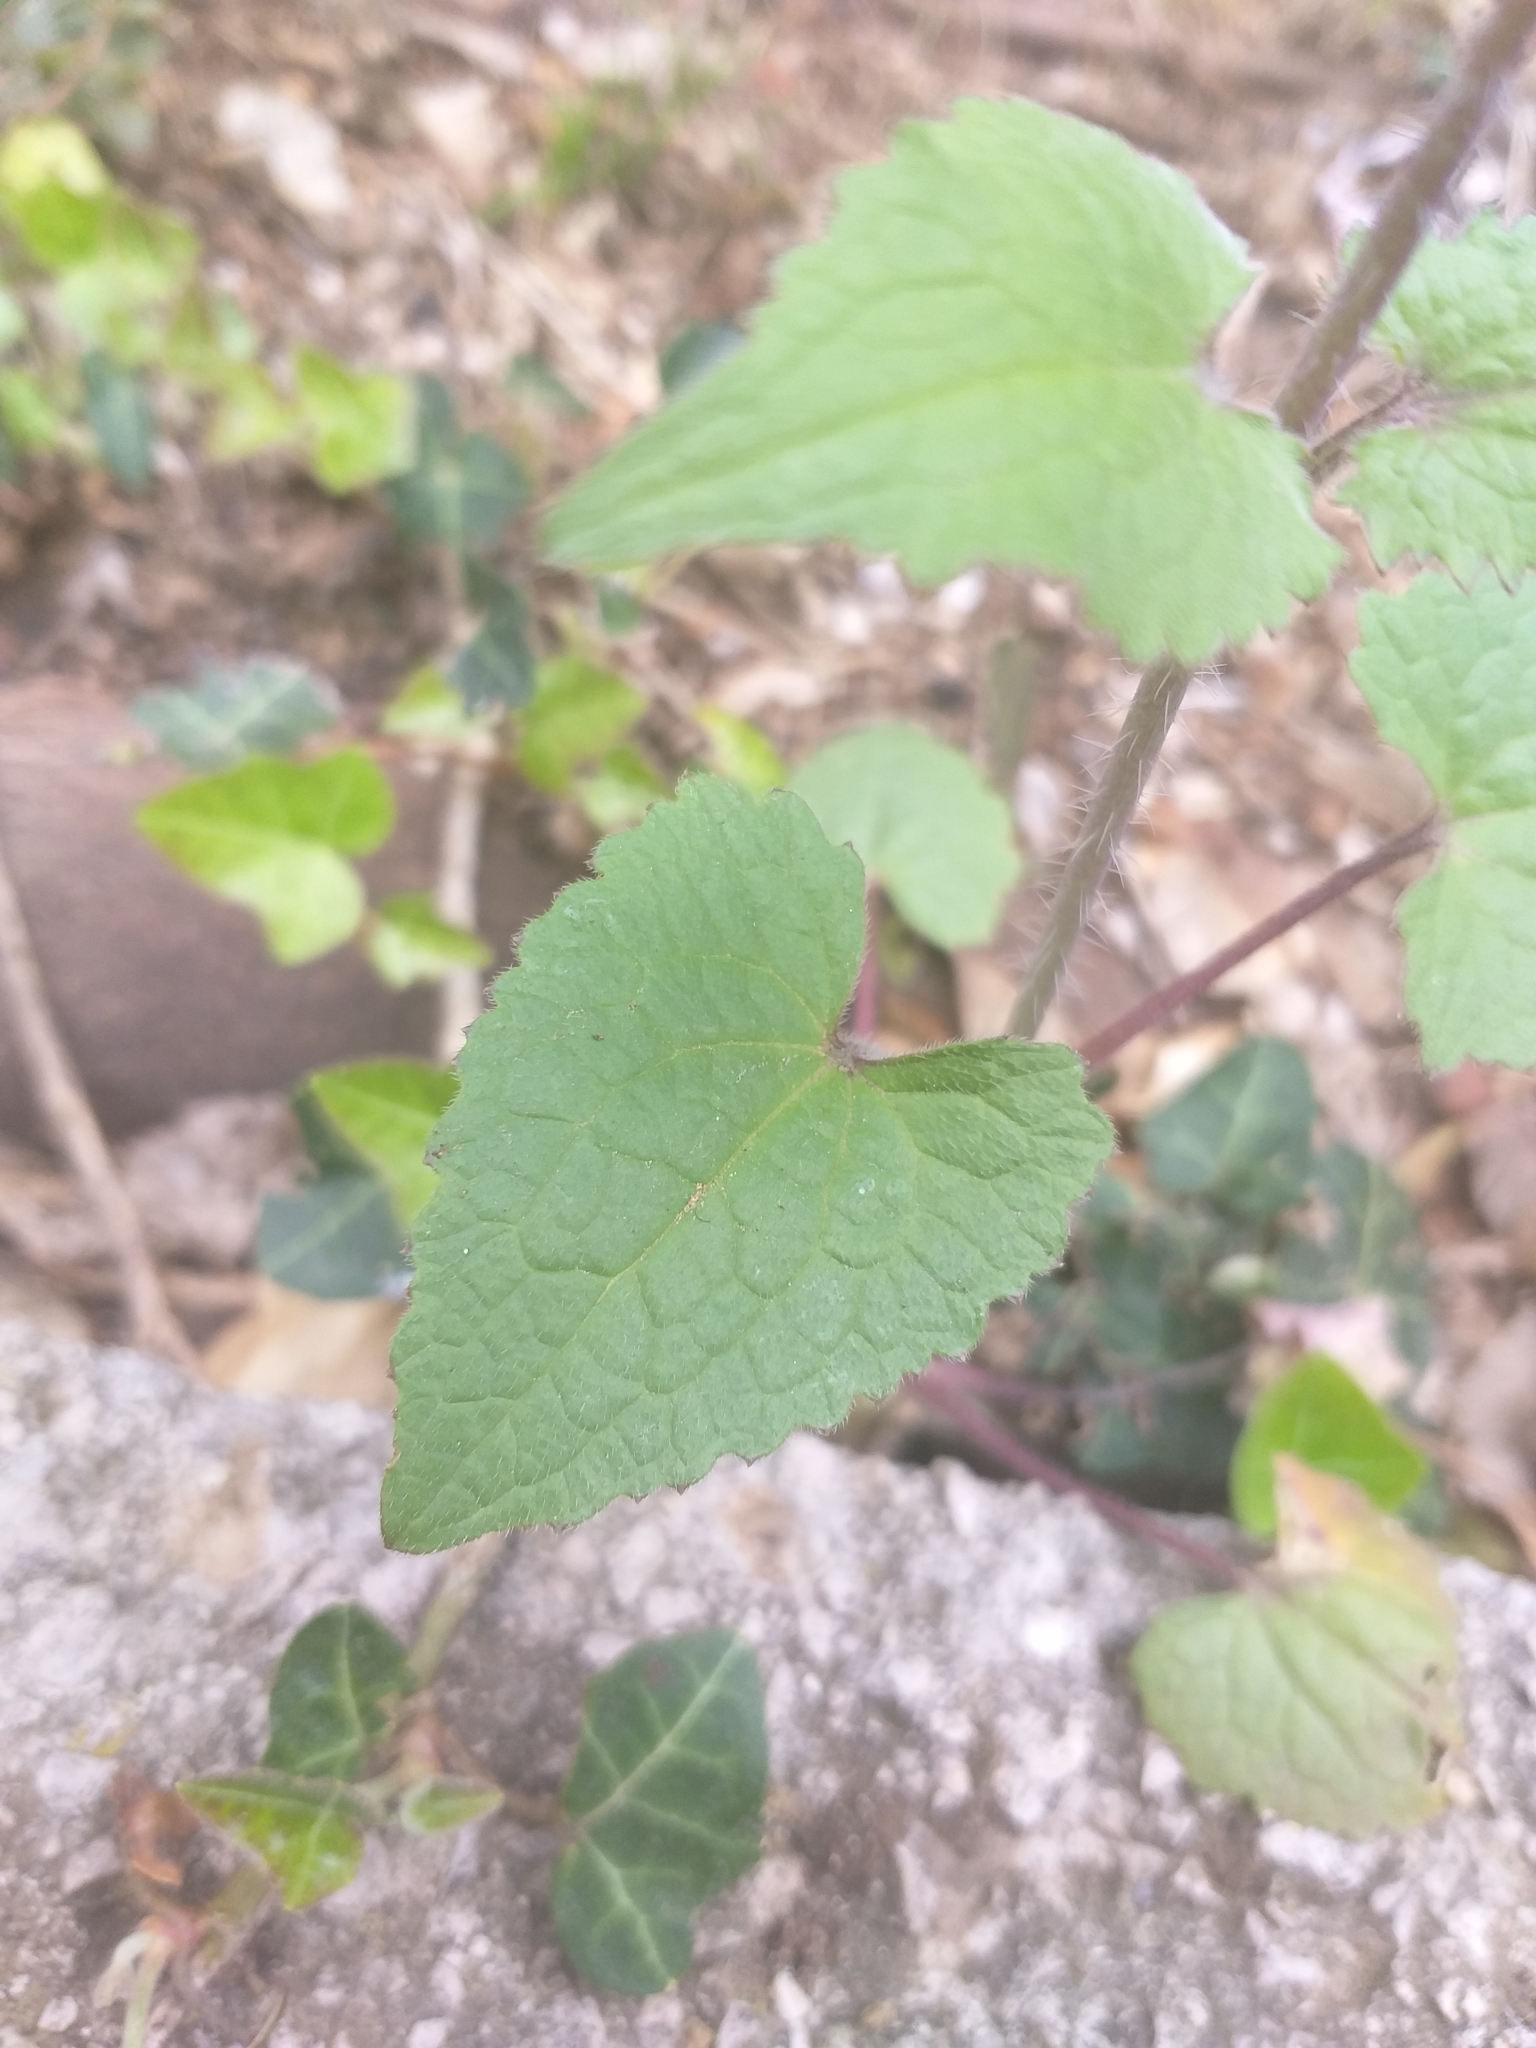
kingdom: Plantae
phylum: Tracheophyta
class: Magnoliopsida
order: Brassicales
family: Brassicaceae
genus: Lunaria
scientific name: Lunaria annua
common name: Honesty
